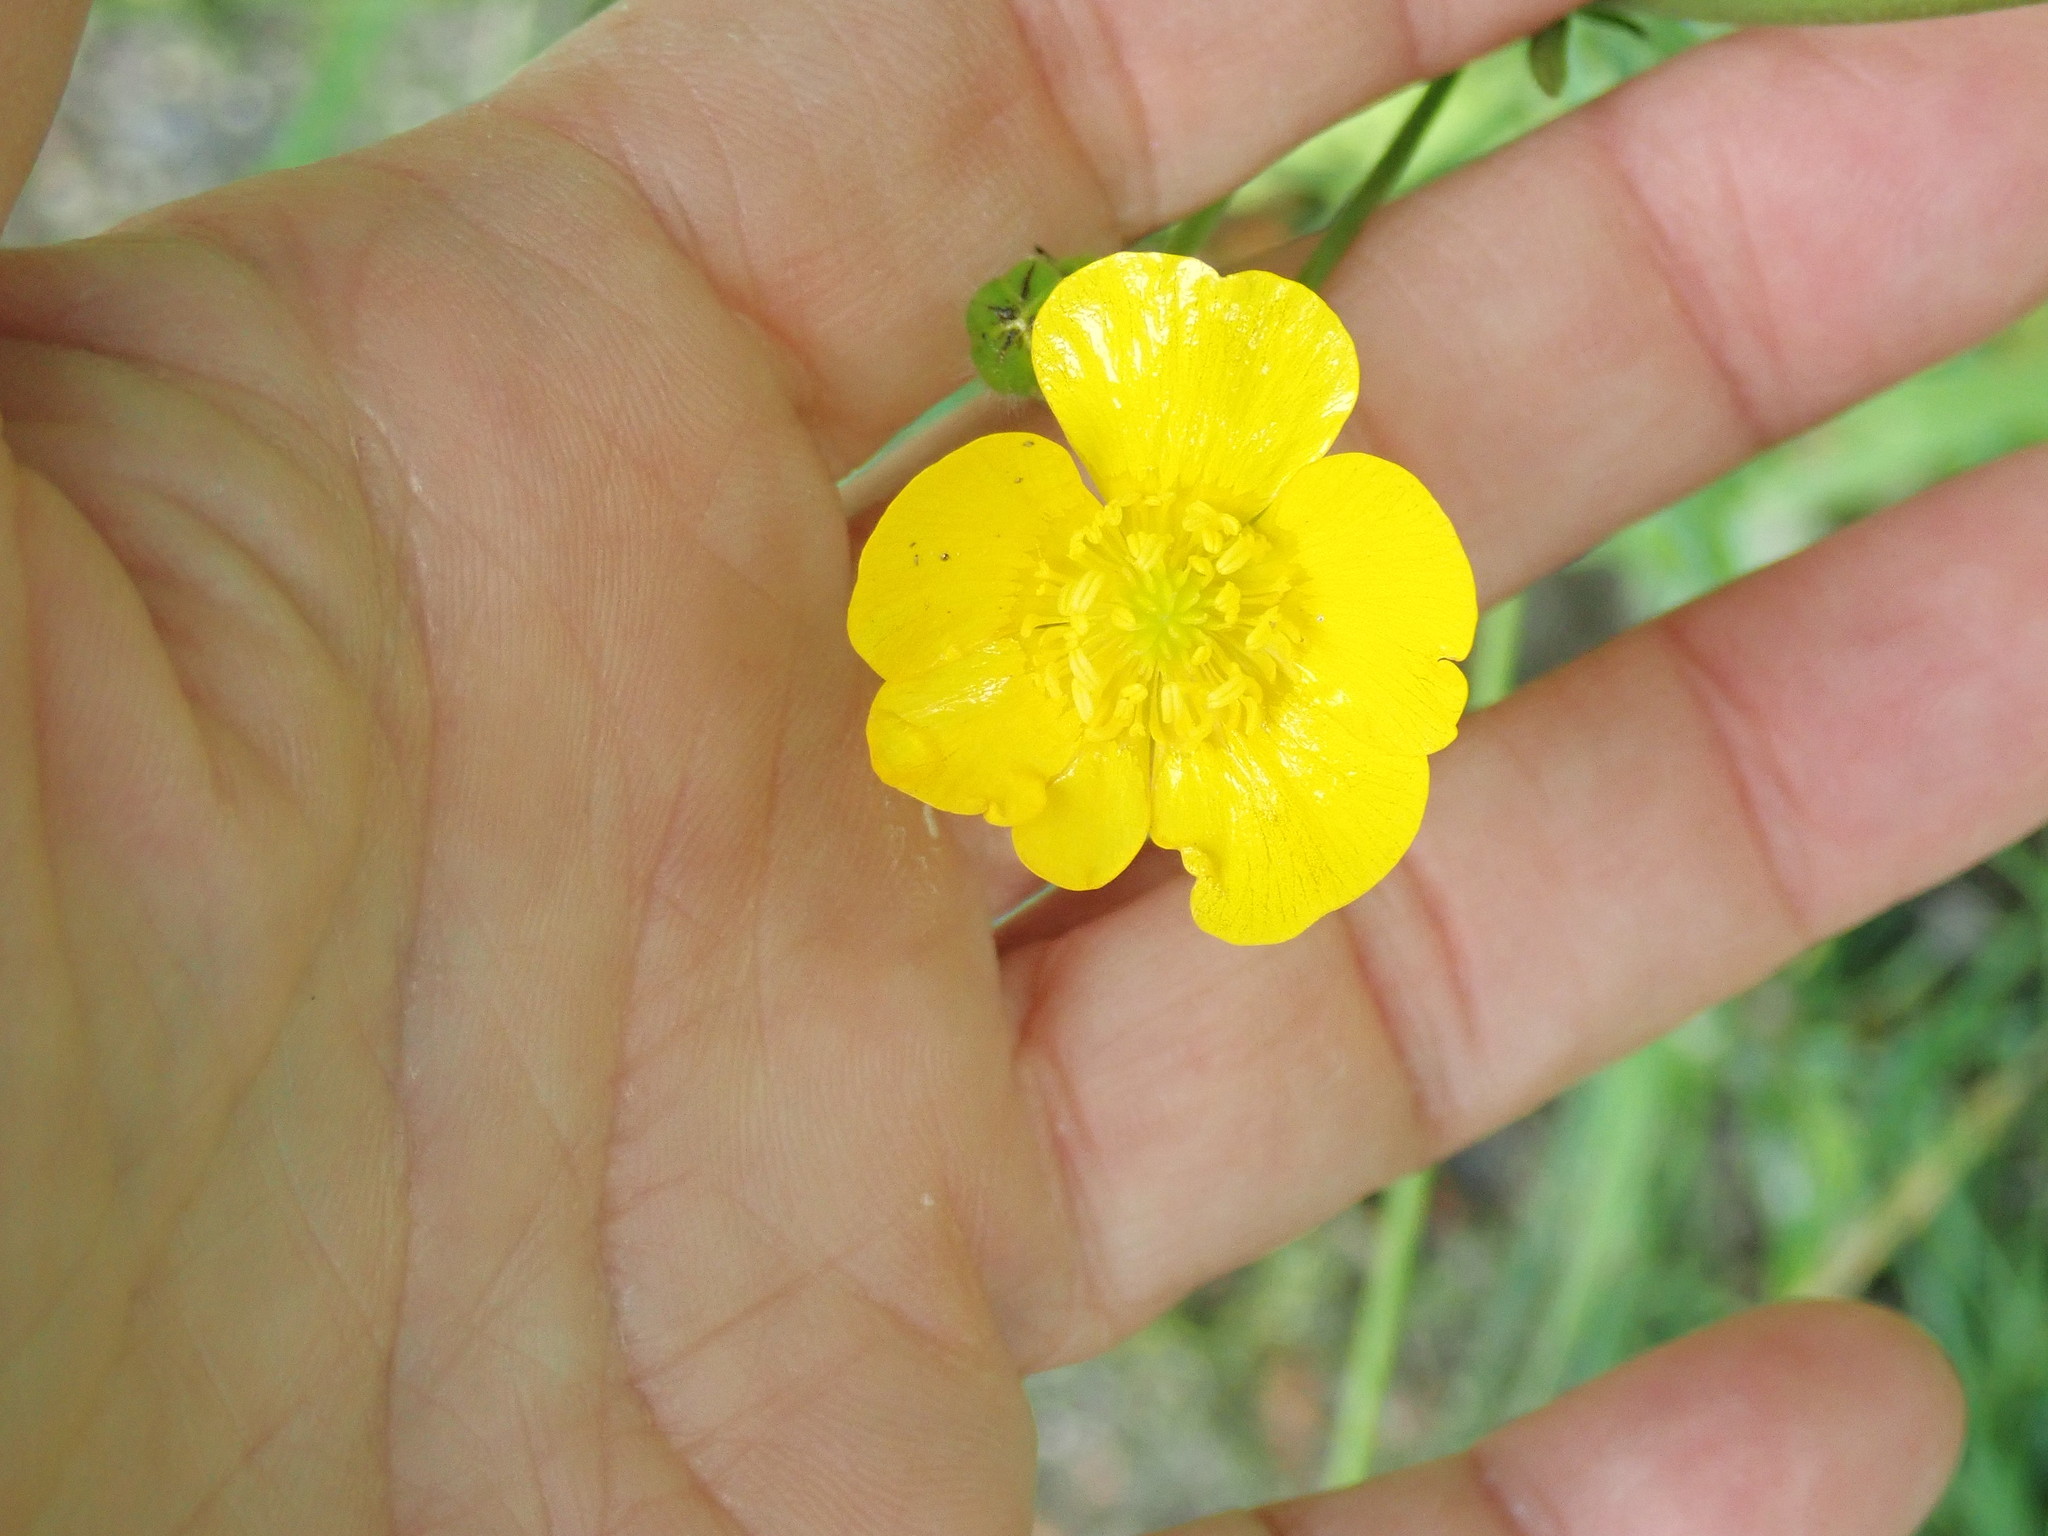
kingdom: Plantae
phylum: Tracheophyta
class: Magnoliopsida
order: Ranunculales
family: Ranunculaceae
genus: Ranunculus
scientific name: Ranunculus acris
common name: Meadow buttercup
